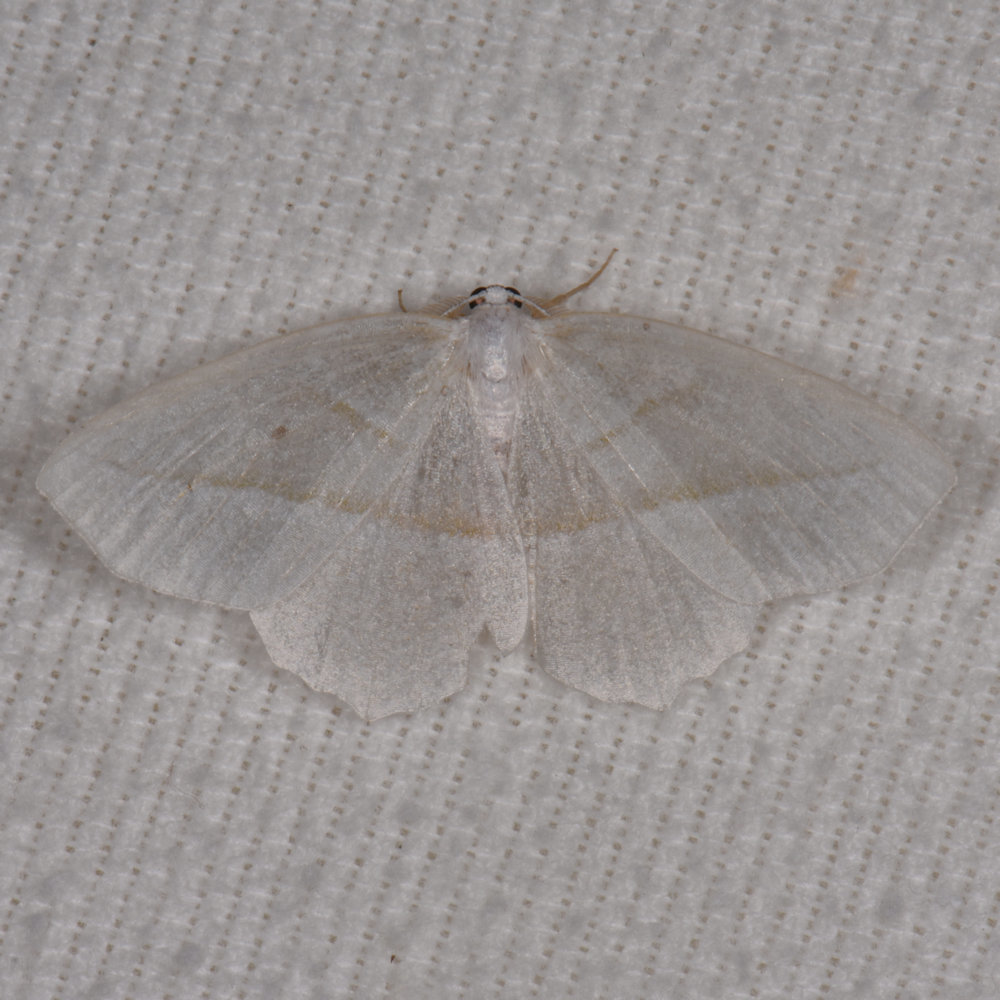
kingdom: Animalia
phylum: Arthropoda
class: Insecta
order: Lepidoptera
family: Geometridae
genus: Eusarca
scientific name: Eusarca confusaria
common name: Confused eusarca
